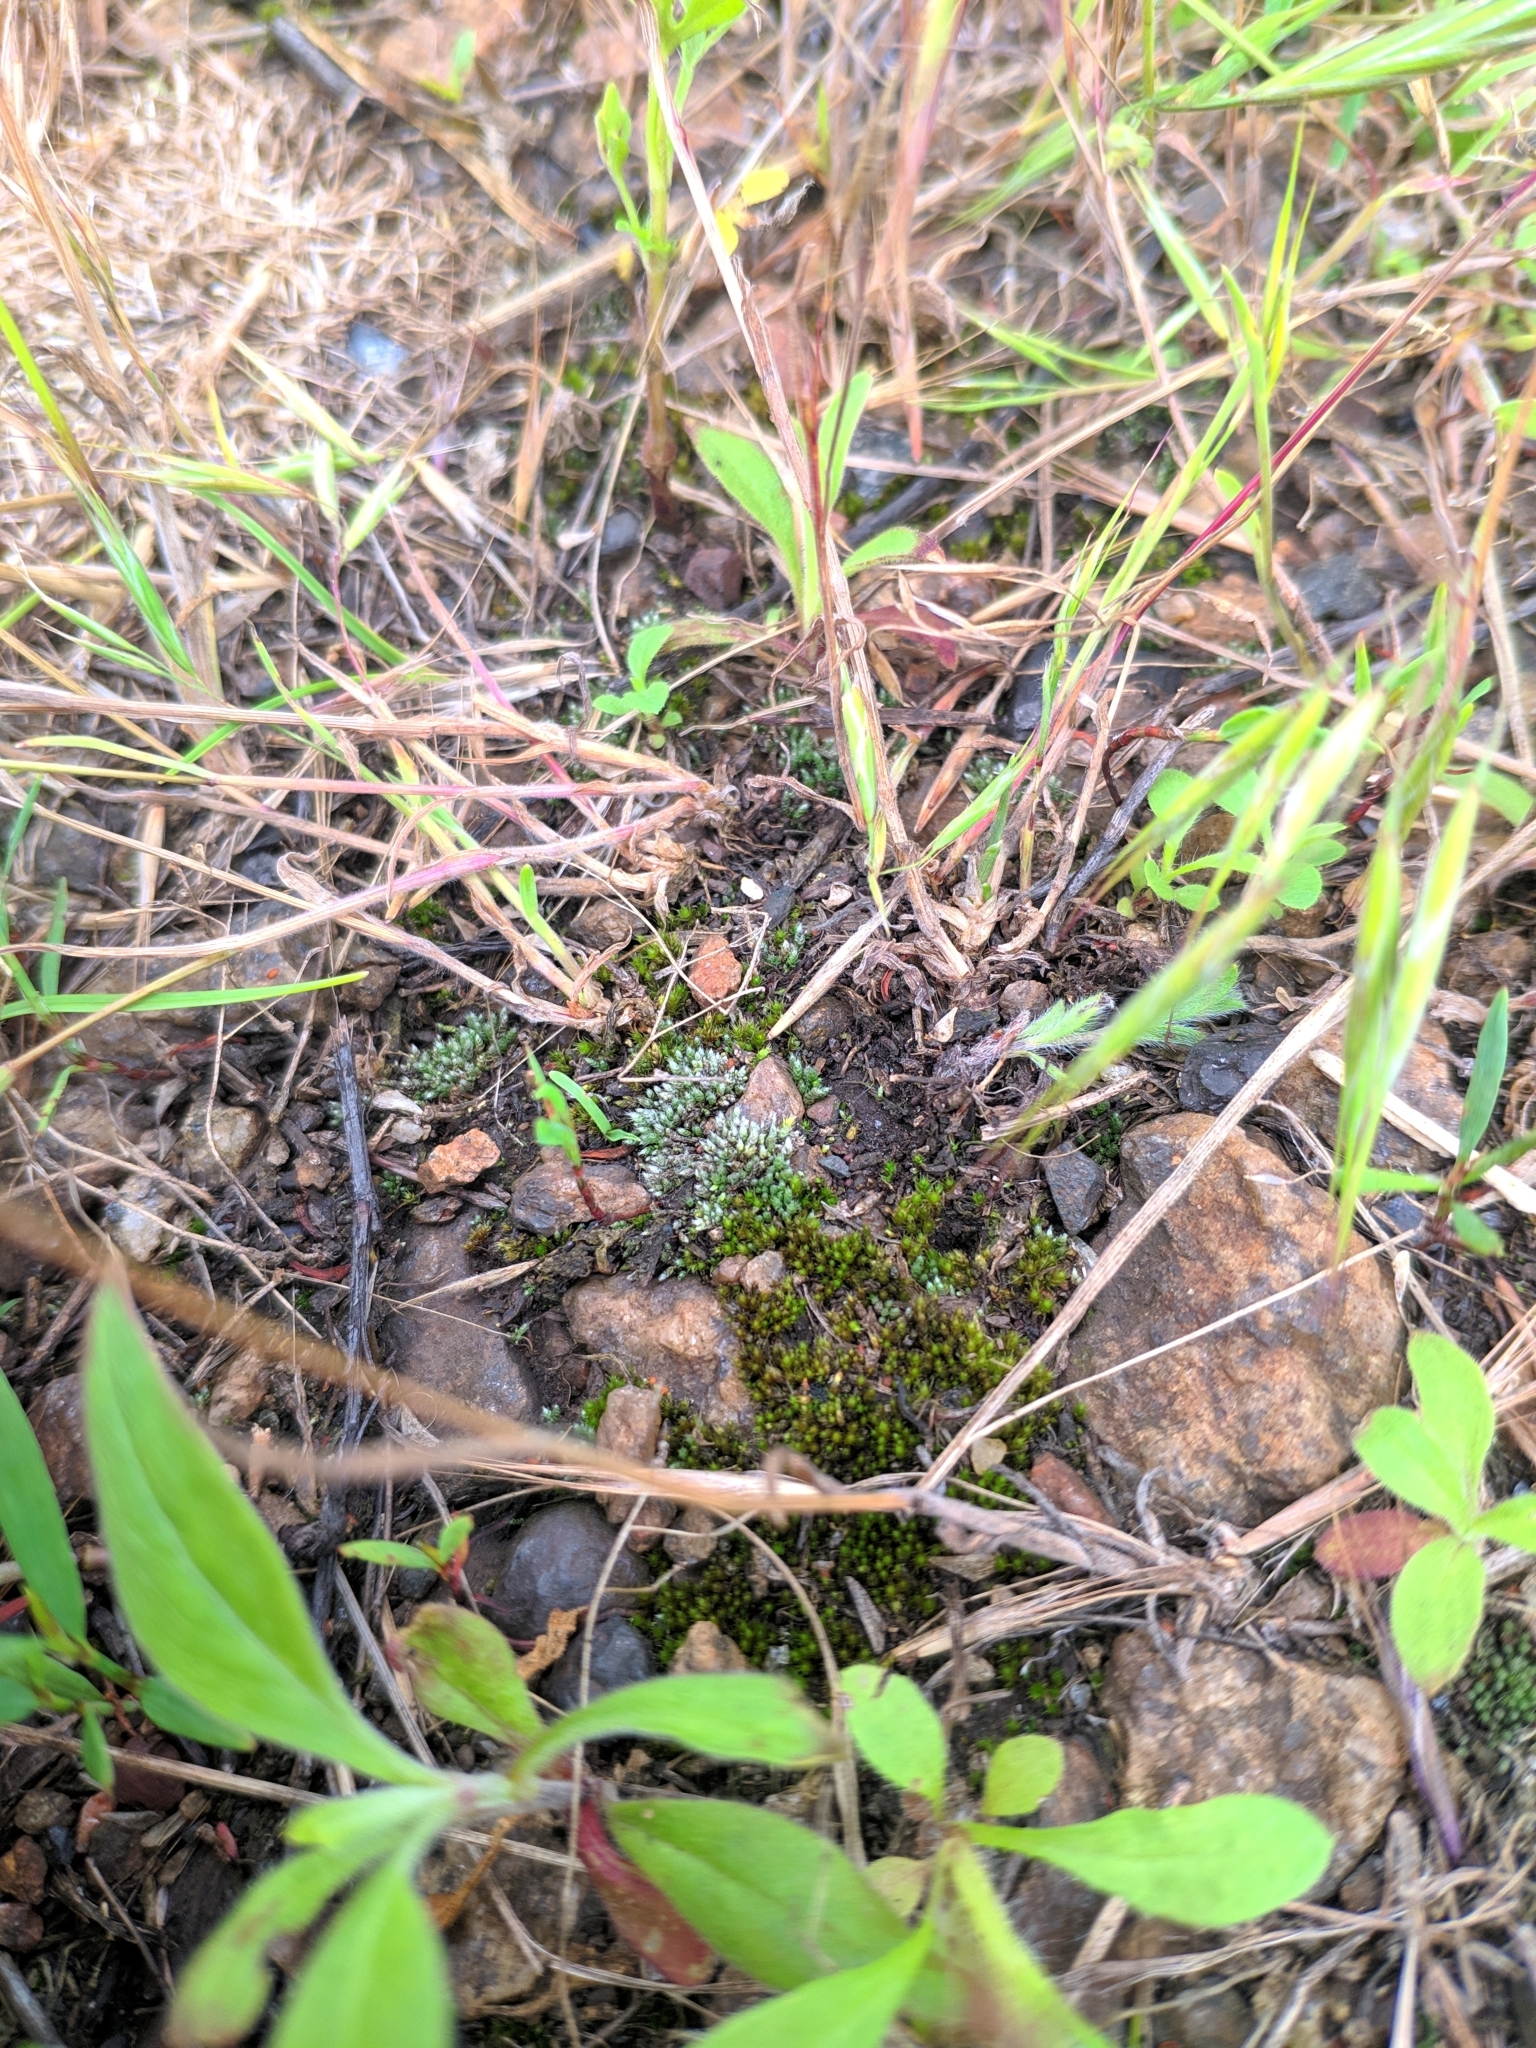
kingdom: Plantae
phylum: Bryophyta
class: Bryopsida
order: Bryales
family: Bryaceae
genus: Bryum
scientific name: Bryum argenteum
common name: Silver-moss
